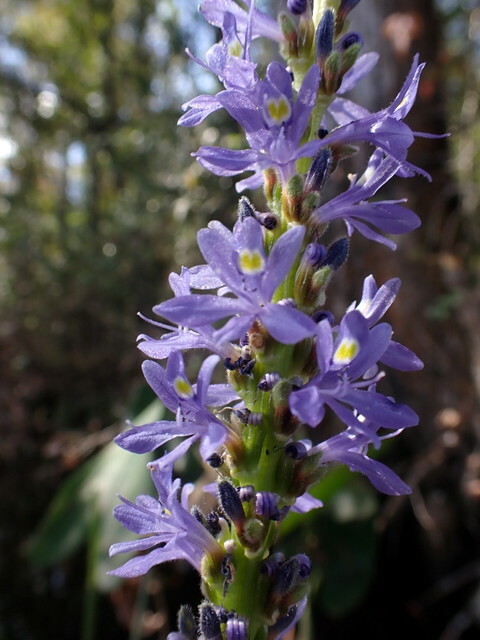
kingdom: Plantae
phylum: Tracheophyta
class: Liliopsida
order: Commelinales
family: Pontederiaceae
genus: Pontederia
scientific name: Pontederia cordata
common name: Pickerelweed
